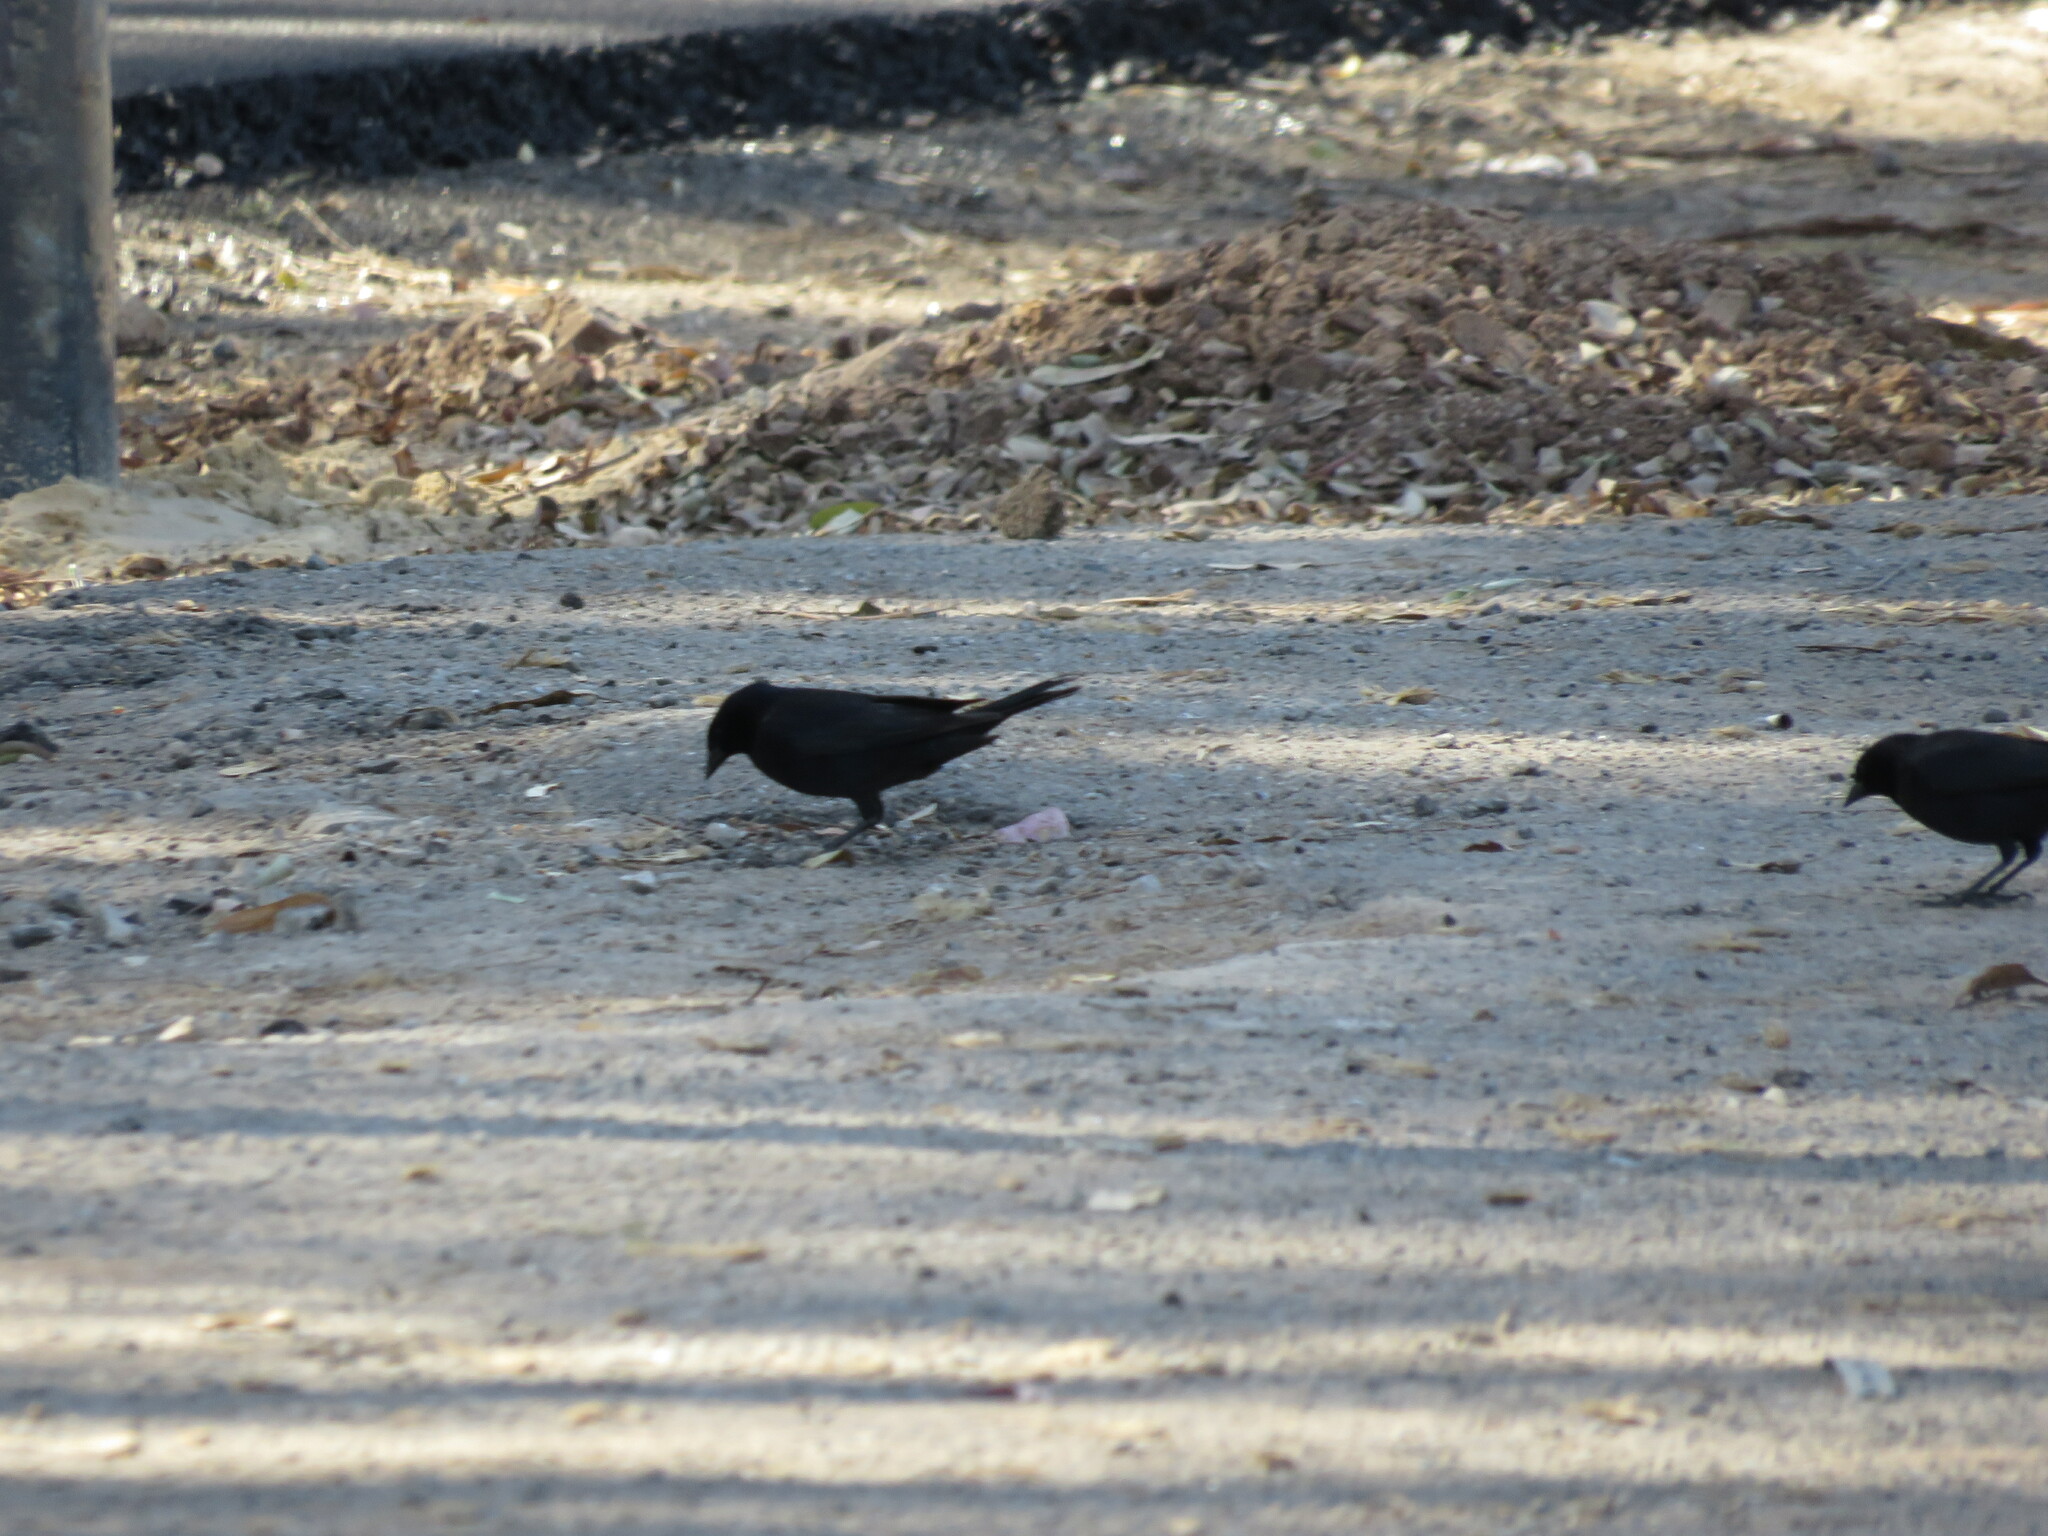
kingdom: Animalia
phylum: Chordata
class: Aves
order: Passeriformes
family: Icteridae
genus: Molothrus
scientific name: Molothrus bonariensis
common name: Shiny cowbird
